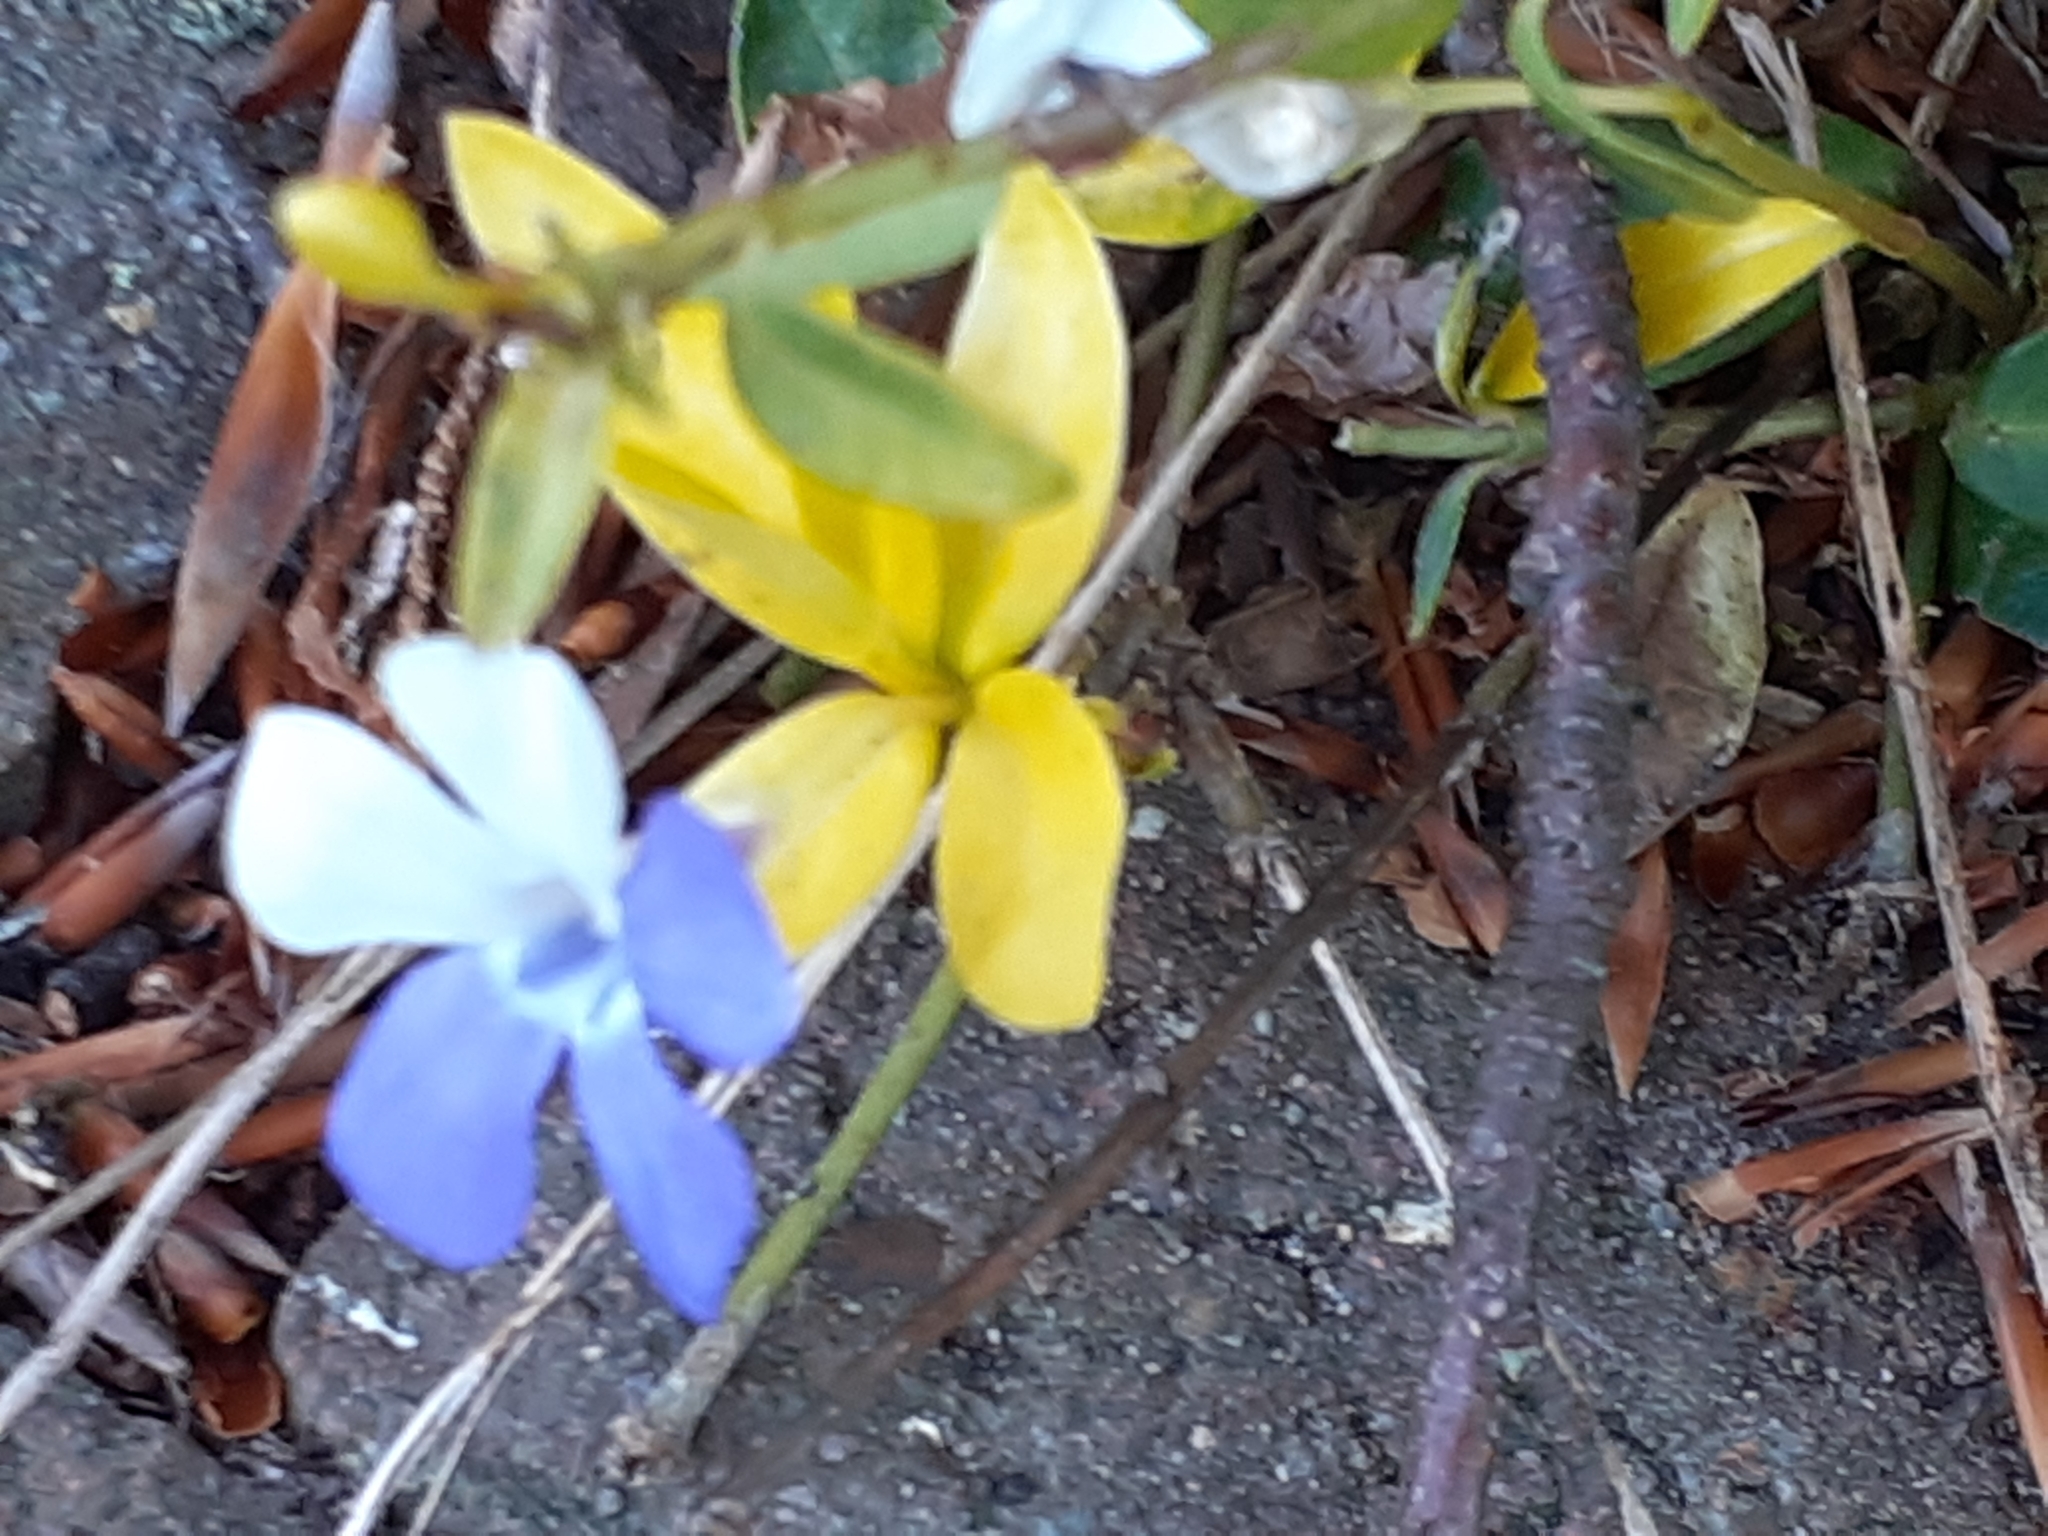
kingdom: Plantae
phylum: Tracheophyta
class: Magnoliopsida
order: Gentianales
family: Apocynaceae
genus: Vinca
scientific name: Vinca minor
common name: Lesser periwinkle
